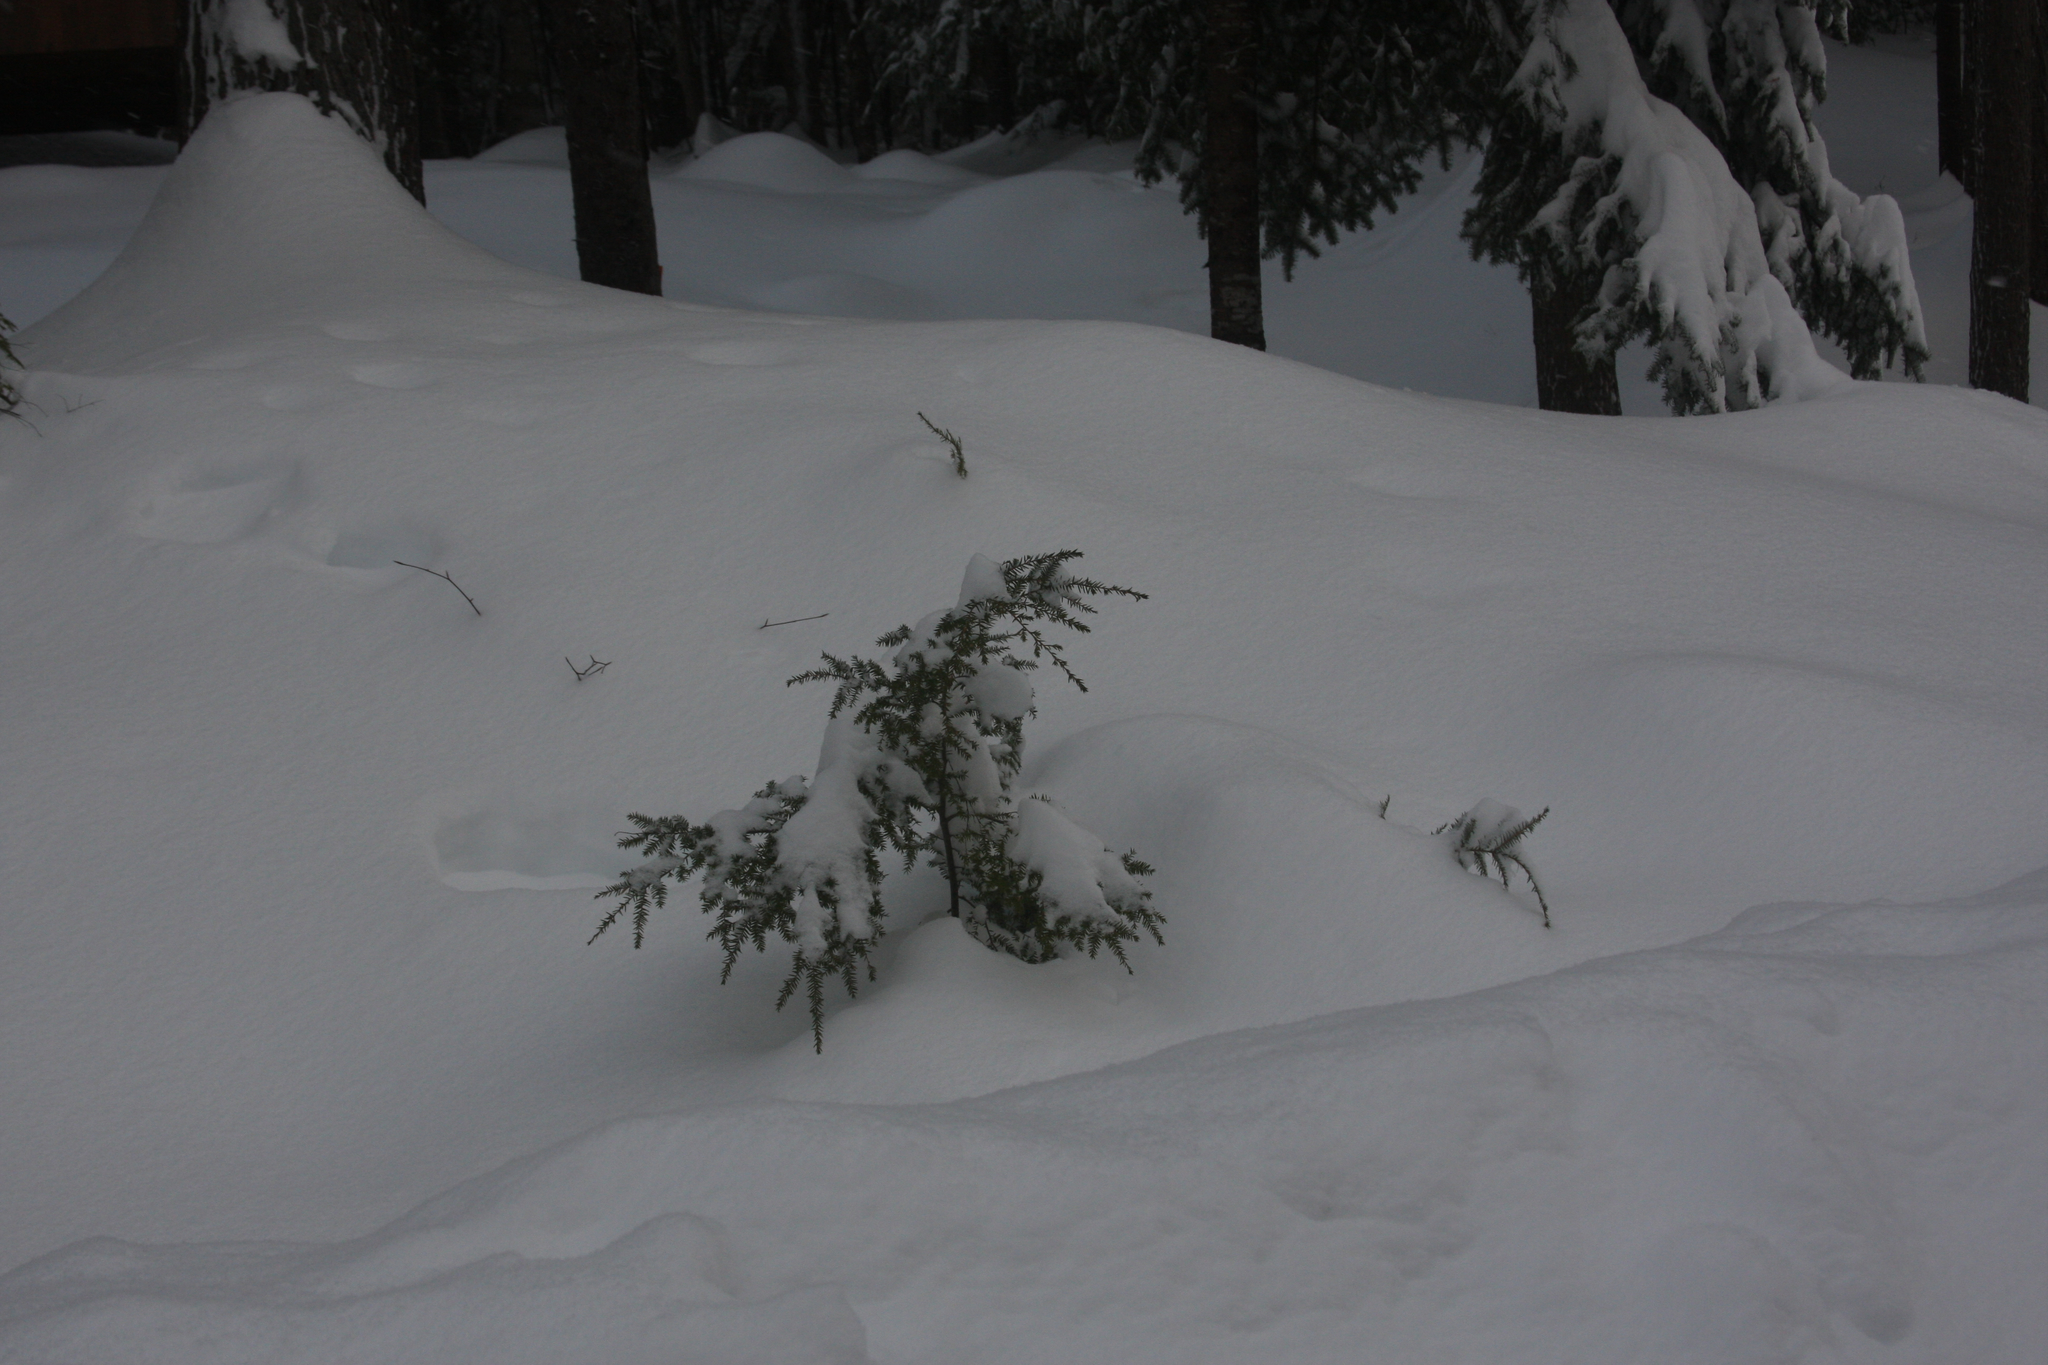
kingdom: Plantae
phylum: Tracheophyta
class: Pinopsida
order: Pinales
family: Pinaceae
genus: Tsuga
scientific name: Tsuga canadensis
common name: Eastern hemlock
